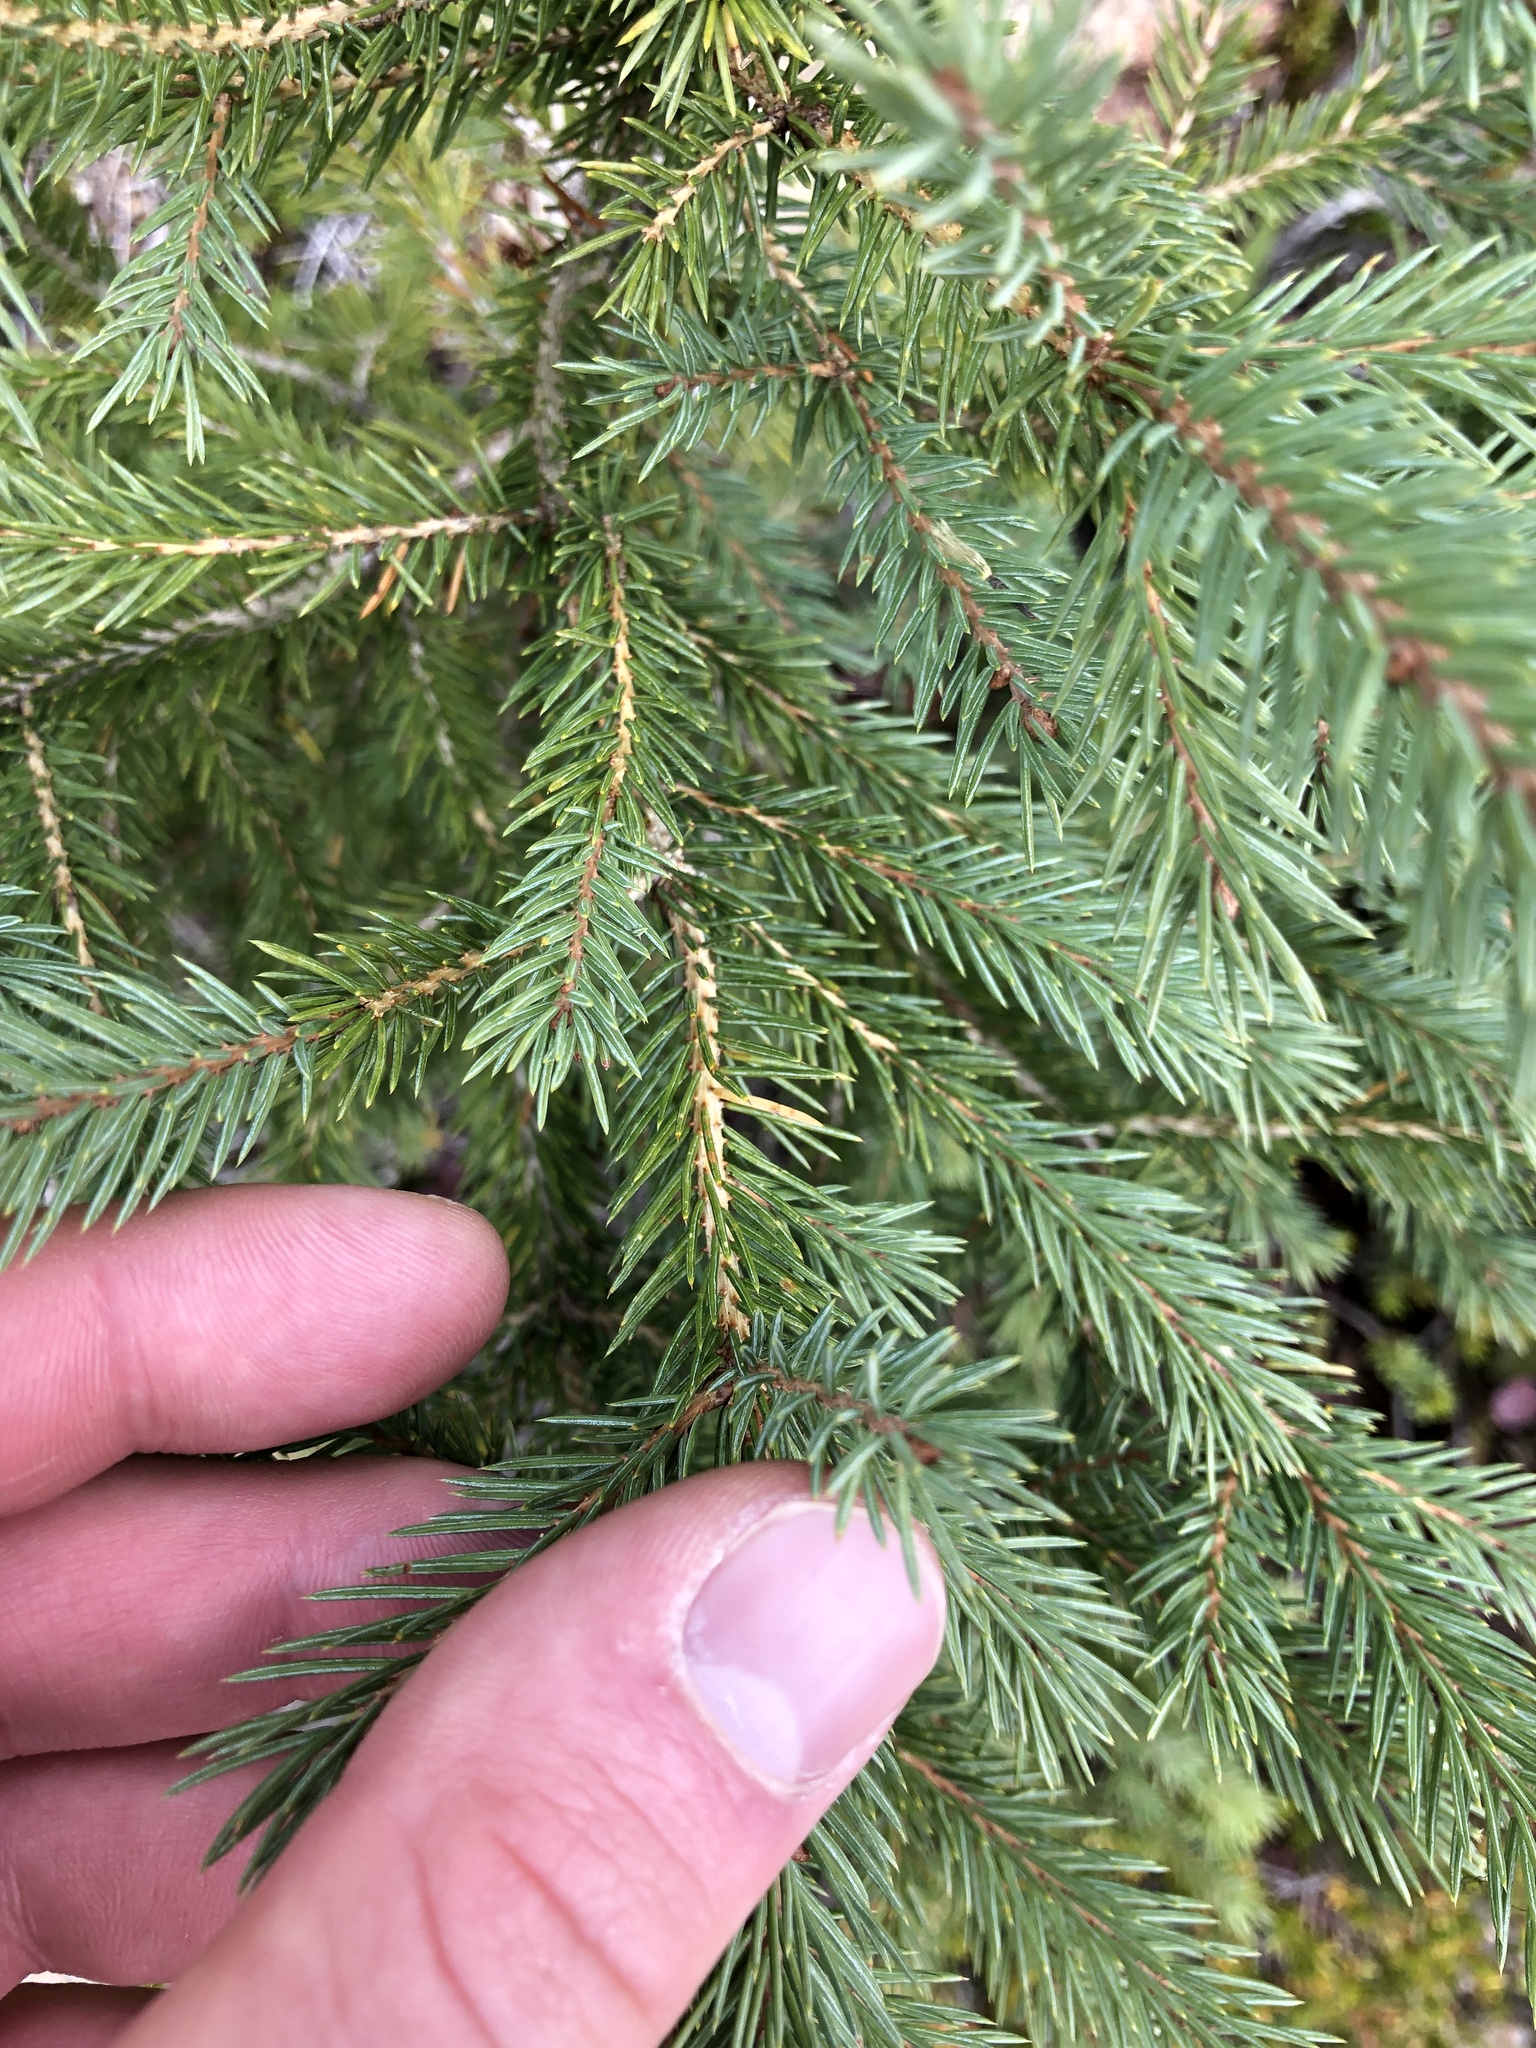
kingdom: Plantae
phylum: Tracheophyta
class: Pinopsida
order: Pinales
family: Pinaceae
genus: Picea
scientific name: Picea engelmannii
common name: Engelmann spruce
